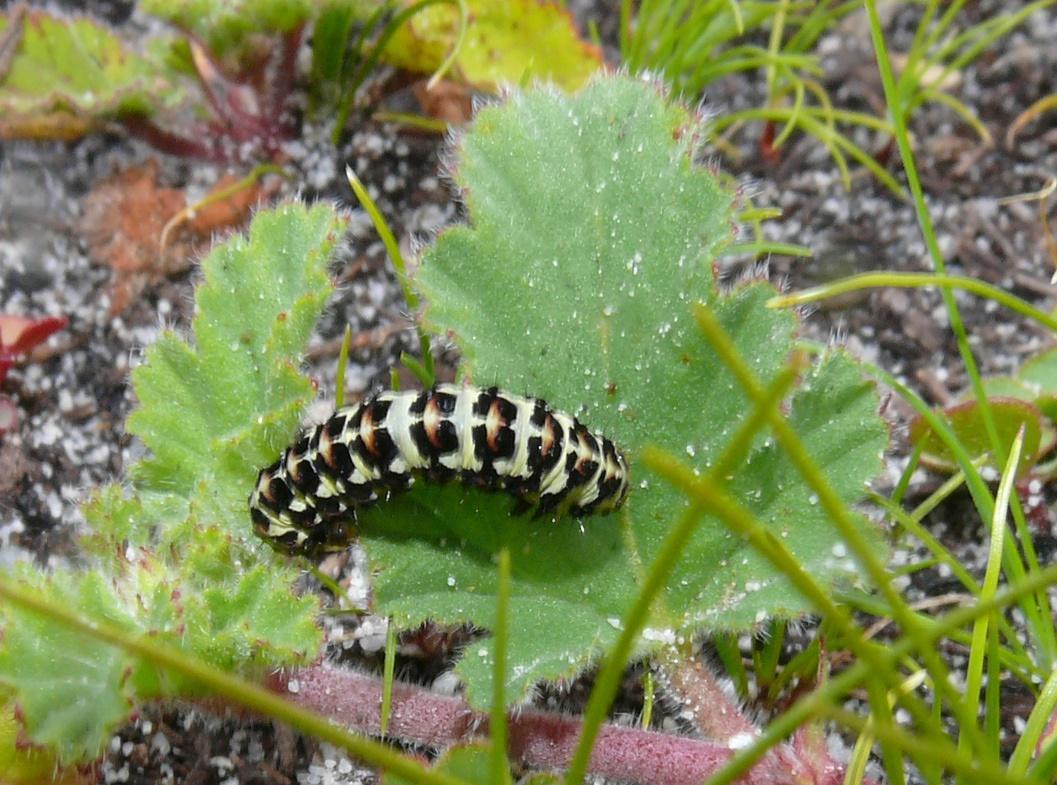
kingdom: Animalia
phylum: Arthropoda
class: Insecta
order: Lepidoptera
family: Noctuidae
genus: Diaphone
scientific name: Diaphone eumela
